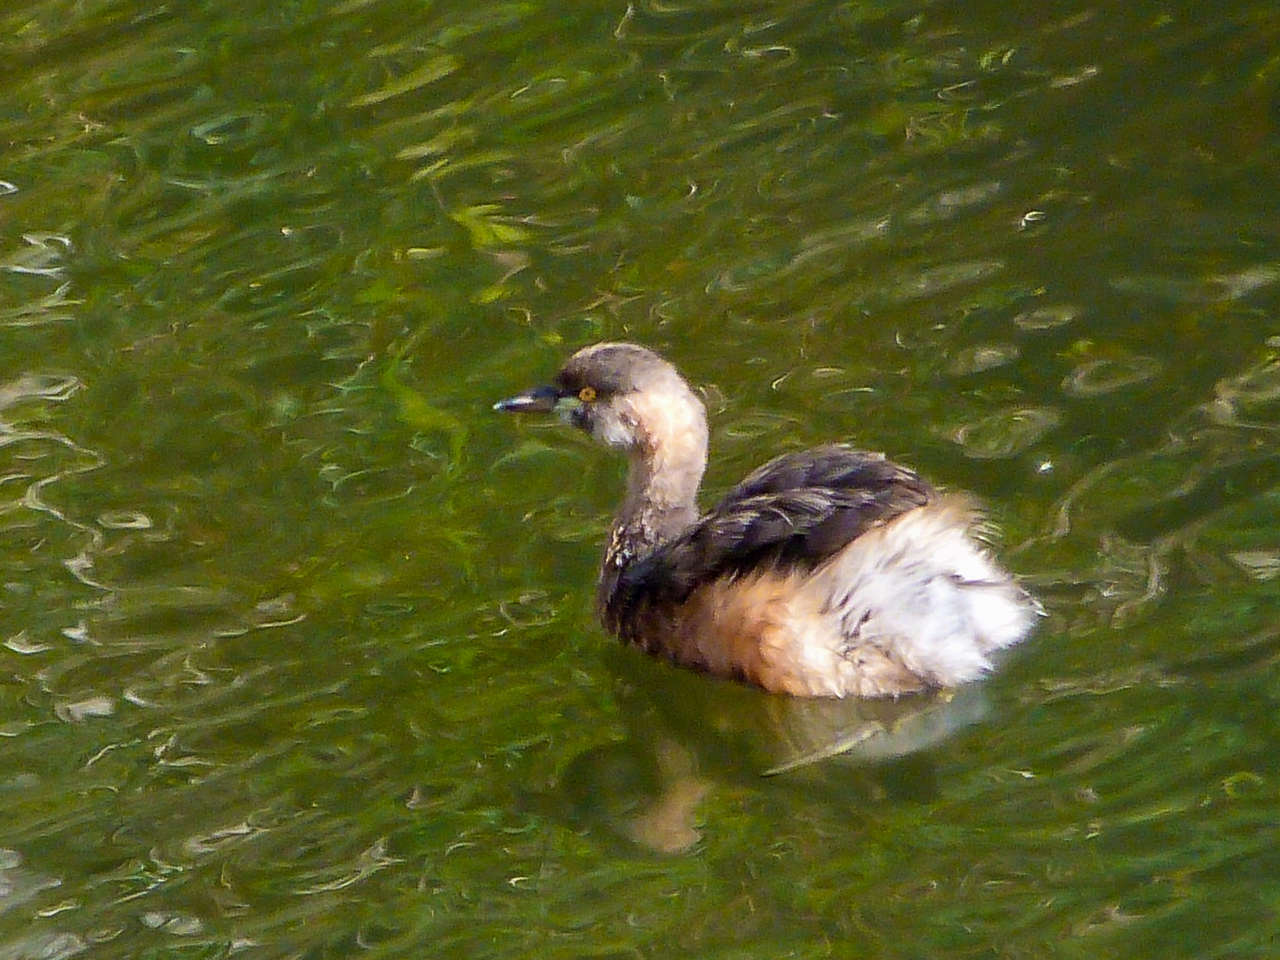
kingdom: Animalia
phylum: Chordata
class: Aves
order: Podicipediformes
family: Podicipedidae
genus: Tachybaptus
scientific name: Tachybaptus novaehollandiae
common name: Australasian grebe
